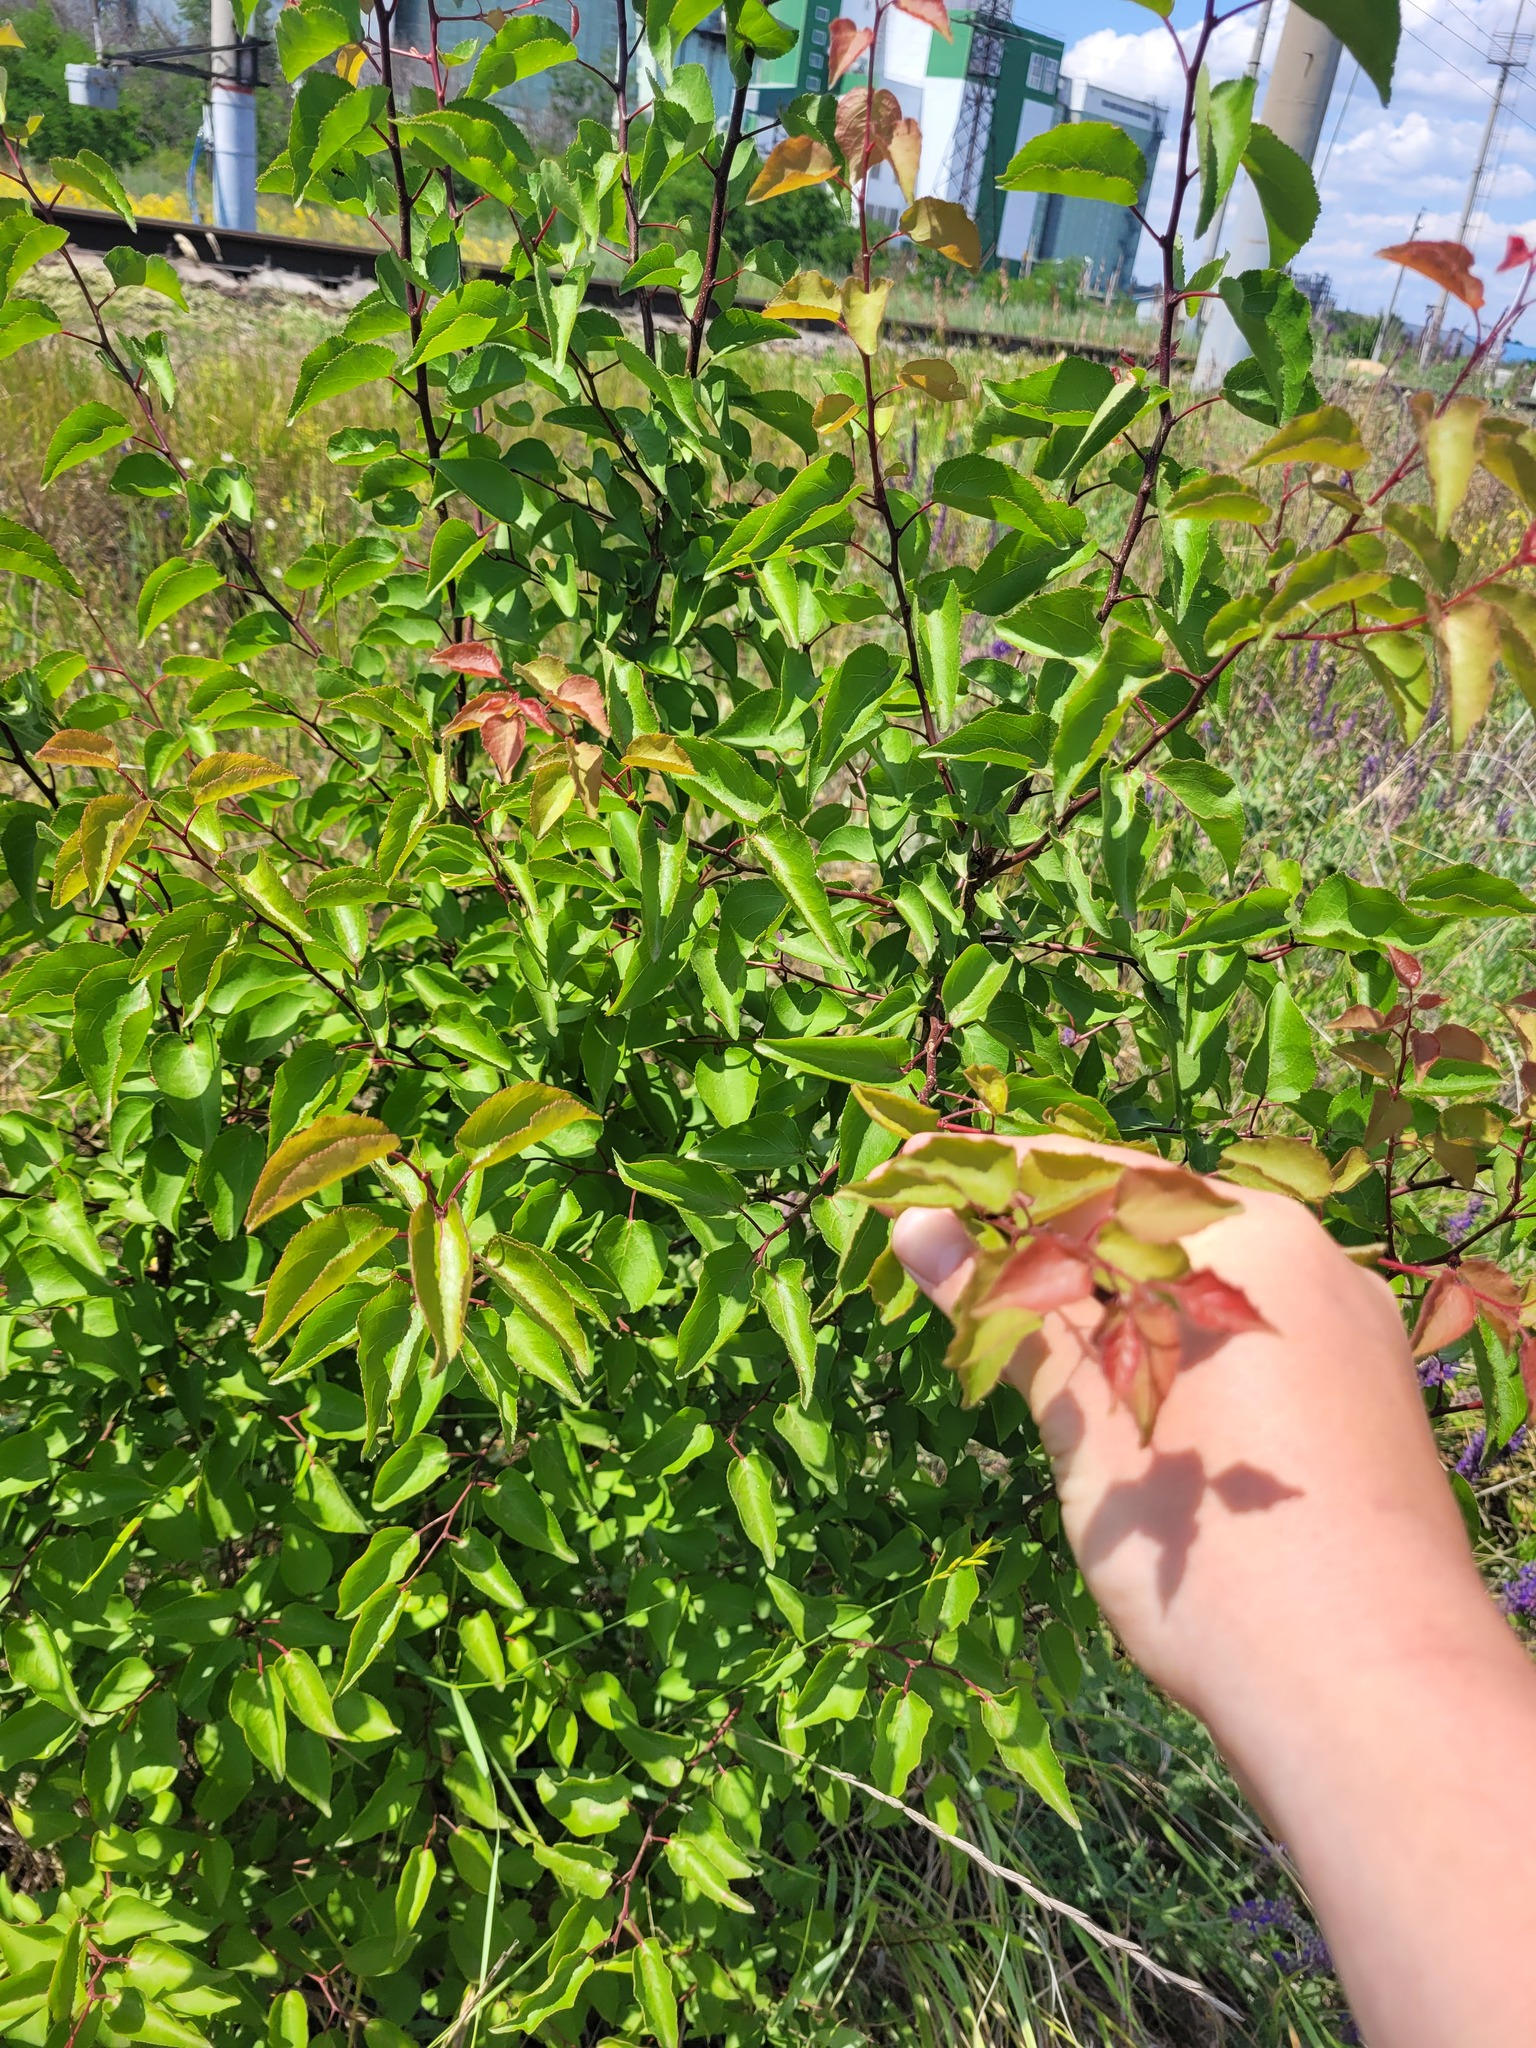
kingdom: Plantae
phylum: Tracheophyta
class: Magnoliopsida
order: Rosales
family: Rosaceae
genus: Prunus
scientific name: Prunus armeniaca
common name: Apricot
